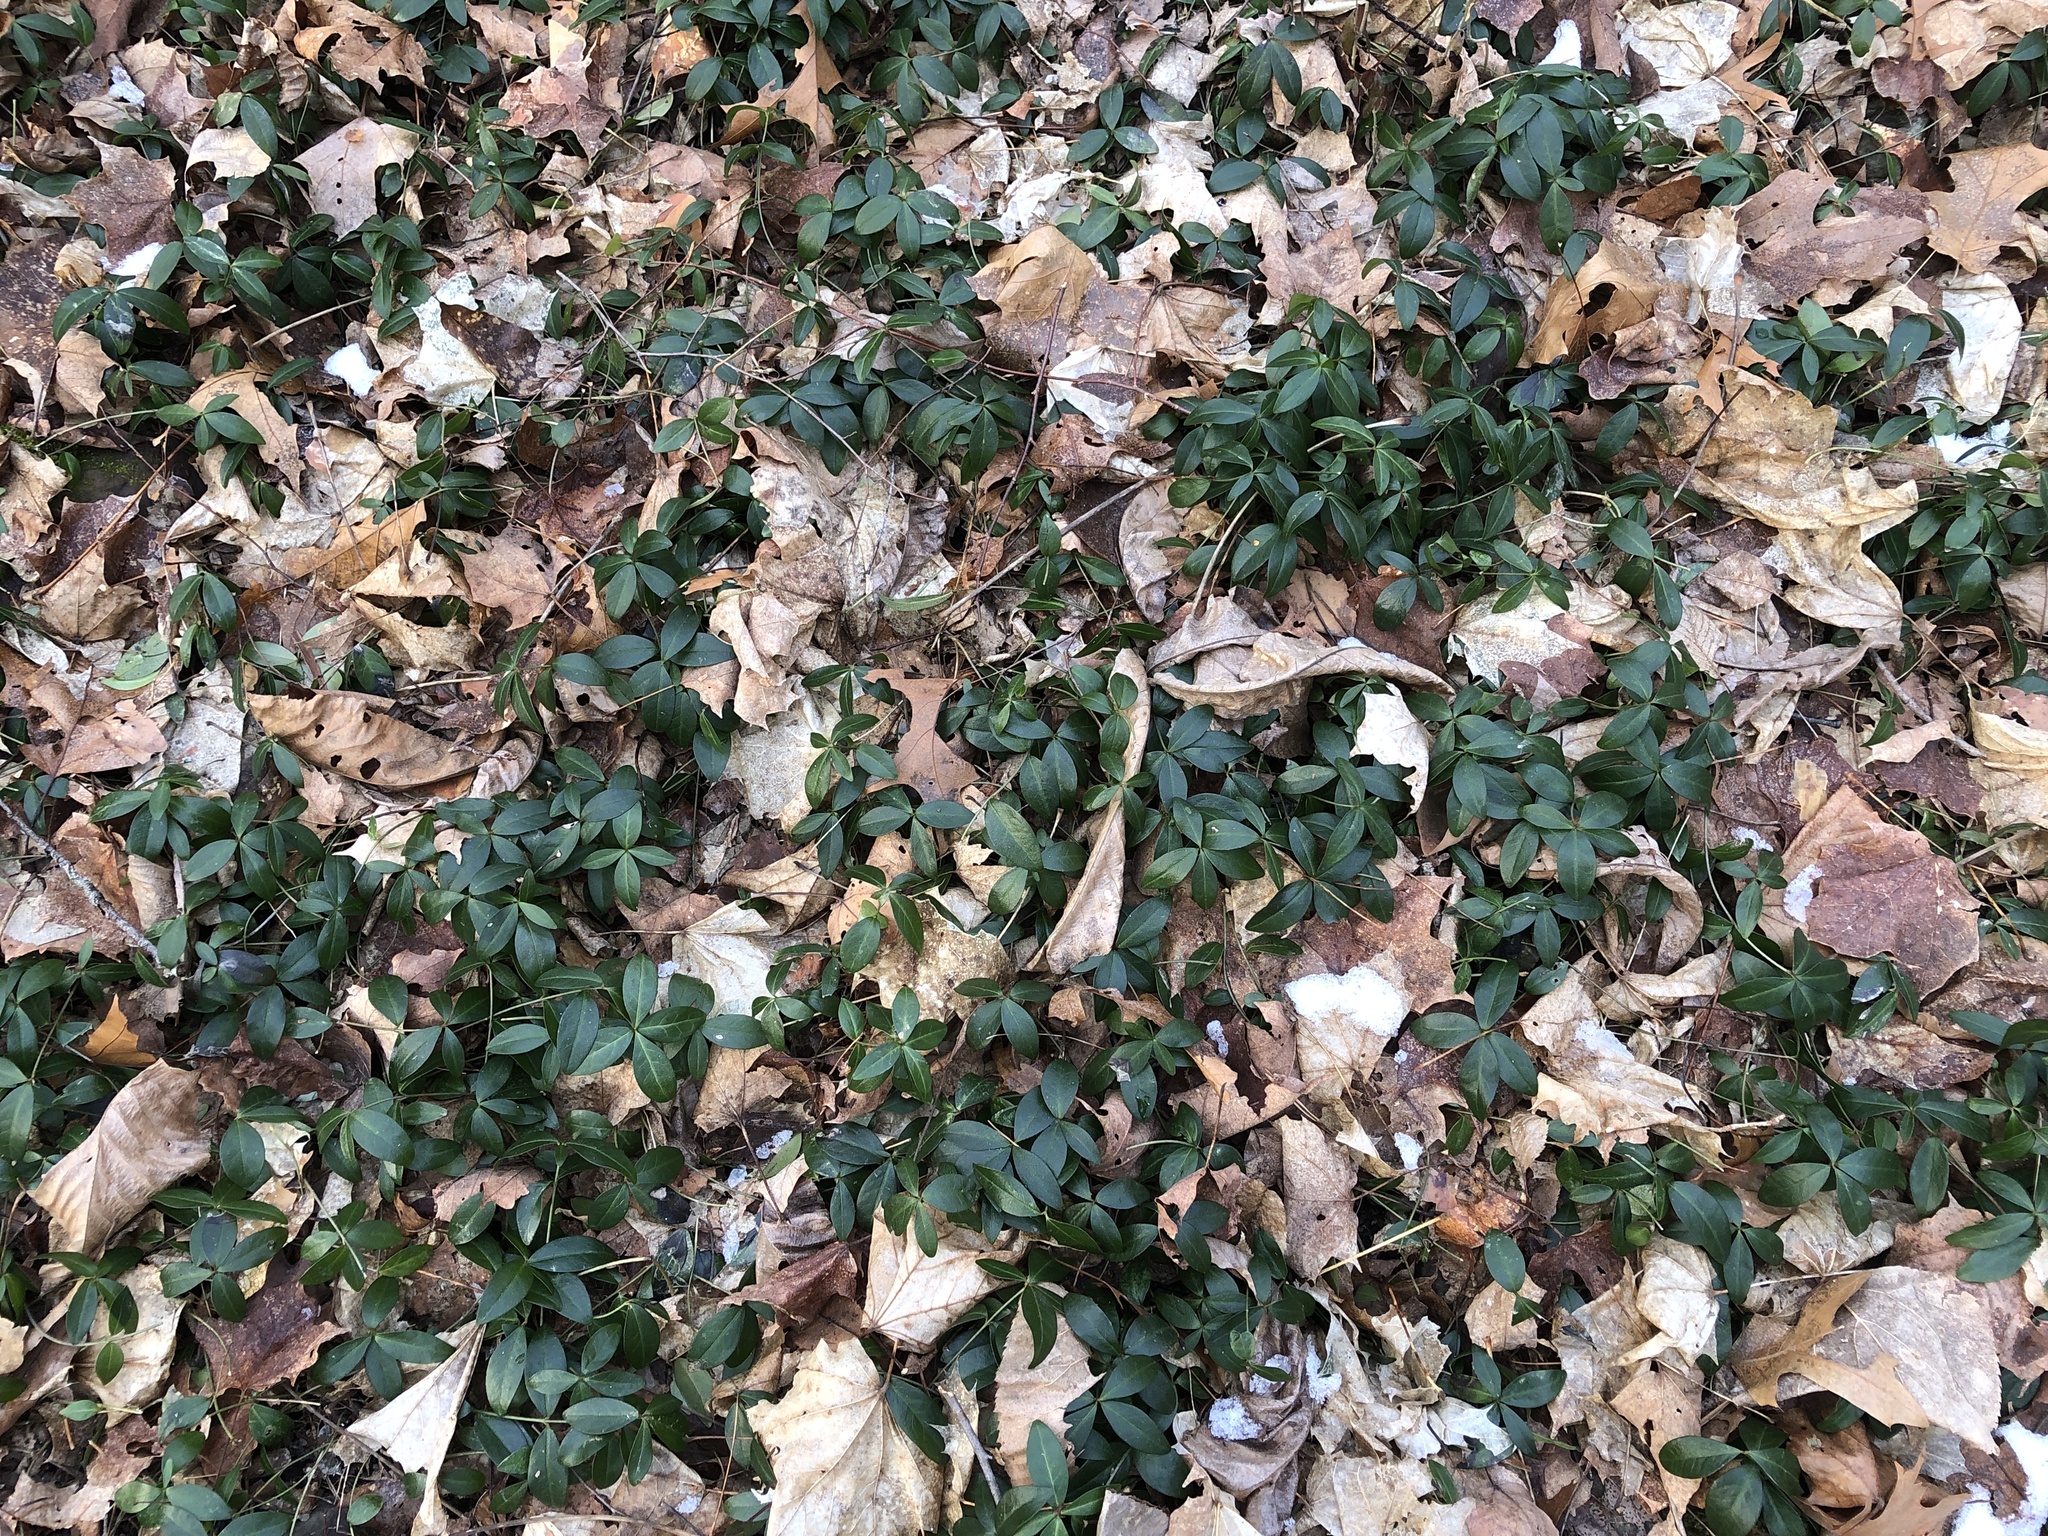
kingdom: Plantae
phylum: Tracheophyta
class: Magnoliopsida
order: Gentianales
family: Apocynaceae
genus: Vinca
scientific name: Vinca minor
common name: Lesser periwinkle
